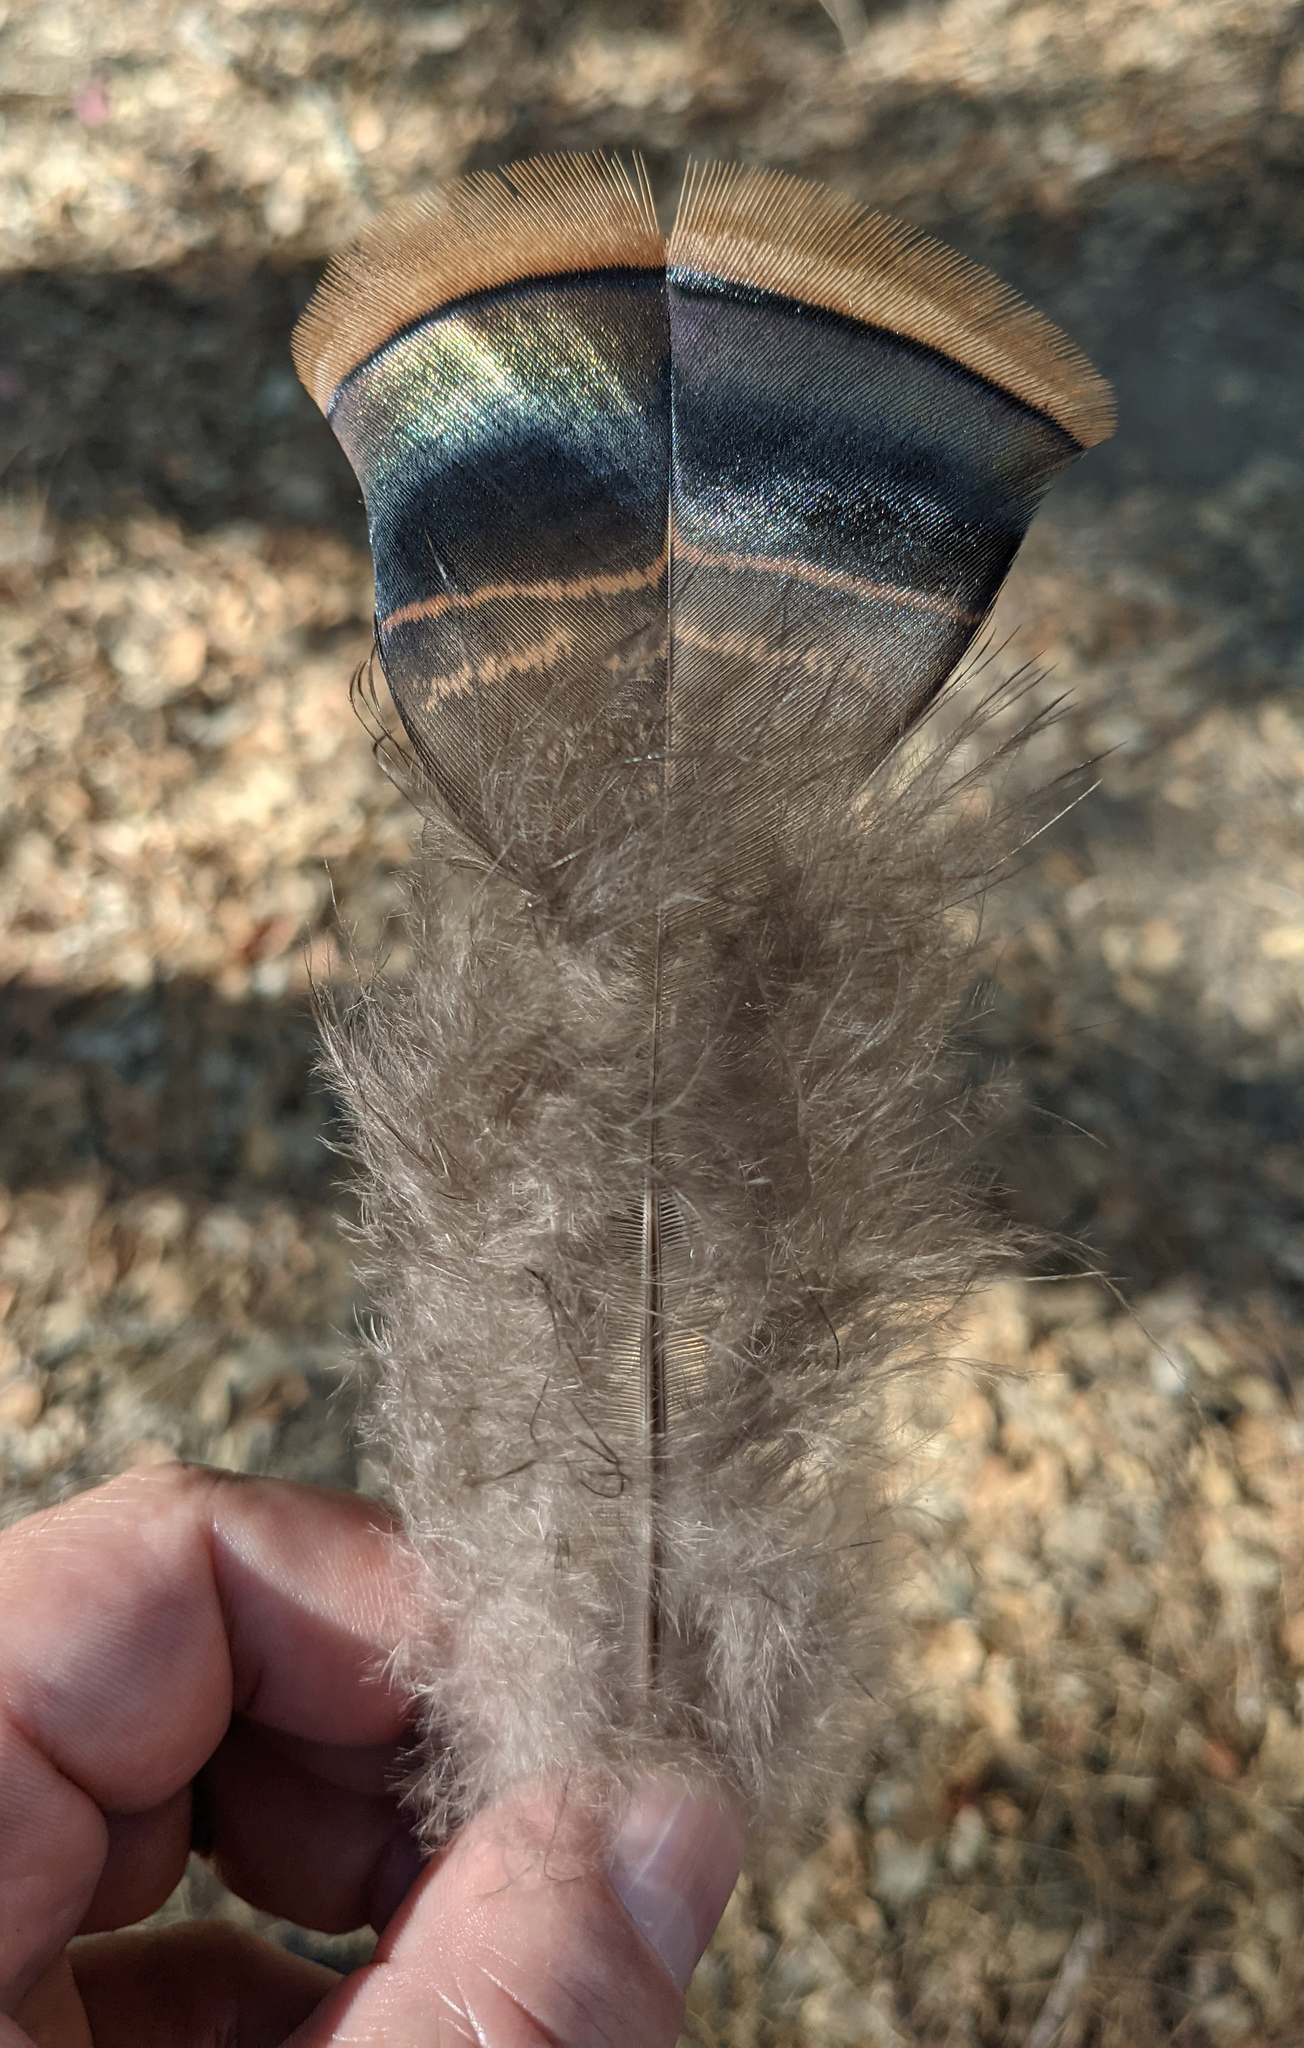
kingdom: Animalia
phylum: Chordata
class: Aves
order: Galliformes
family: Phasianidae
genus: Meleagris
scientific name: Meleagris gallopavo
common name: Wild turkey
